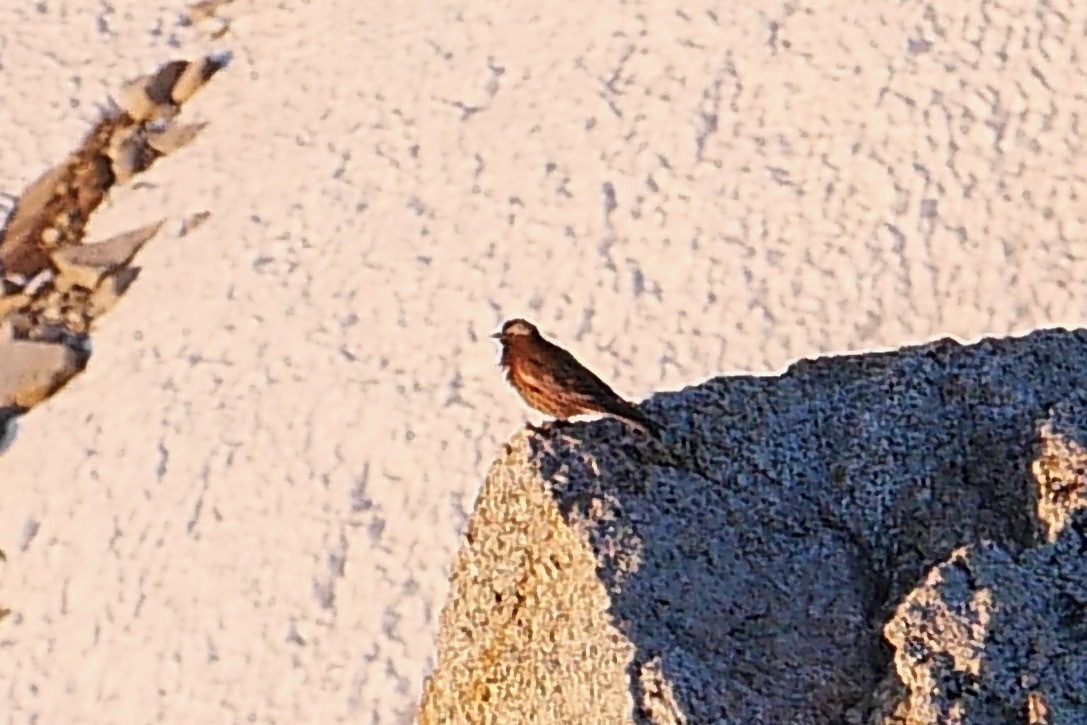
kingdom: Animalia
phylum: Chordata
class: Aves
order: Passeriformes
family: Fringillidae
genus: Leucosticte
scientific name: Leucosticte tephrocotis
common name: Gray-crowned rosy-finch
